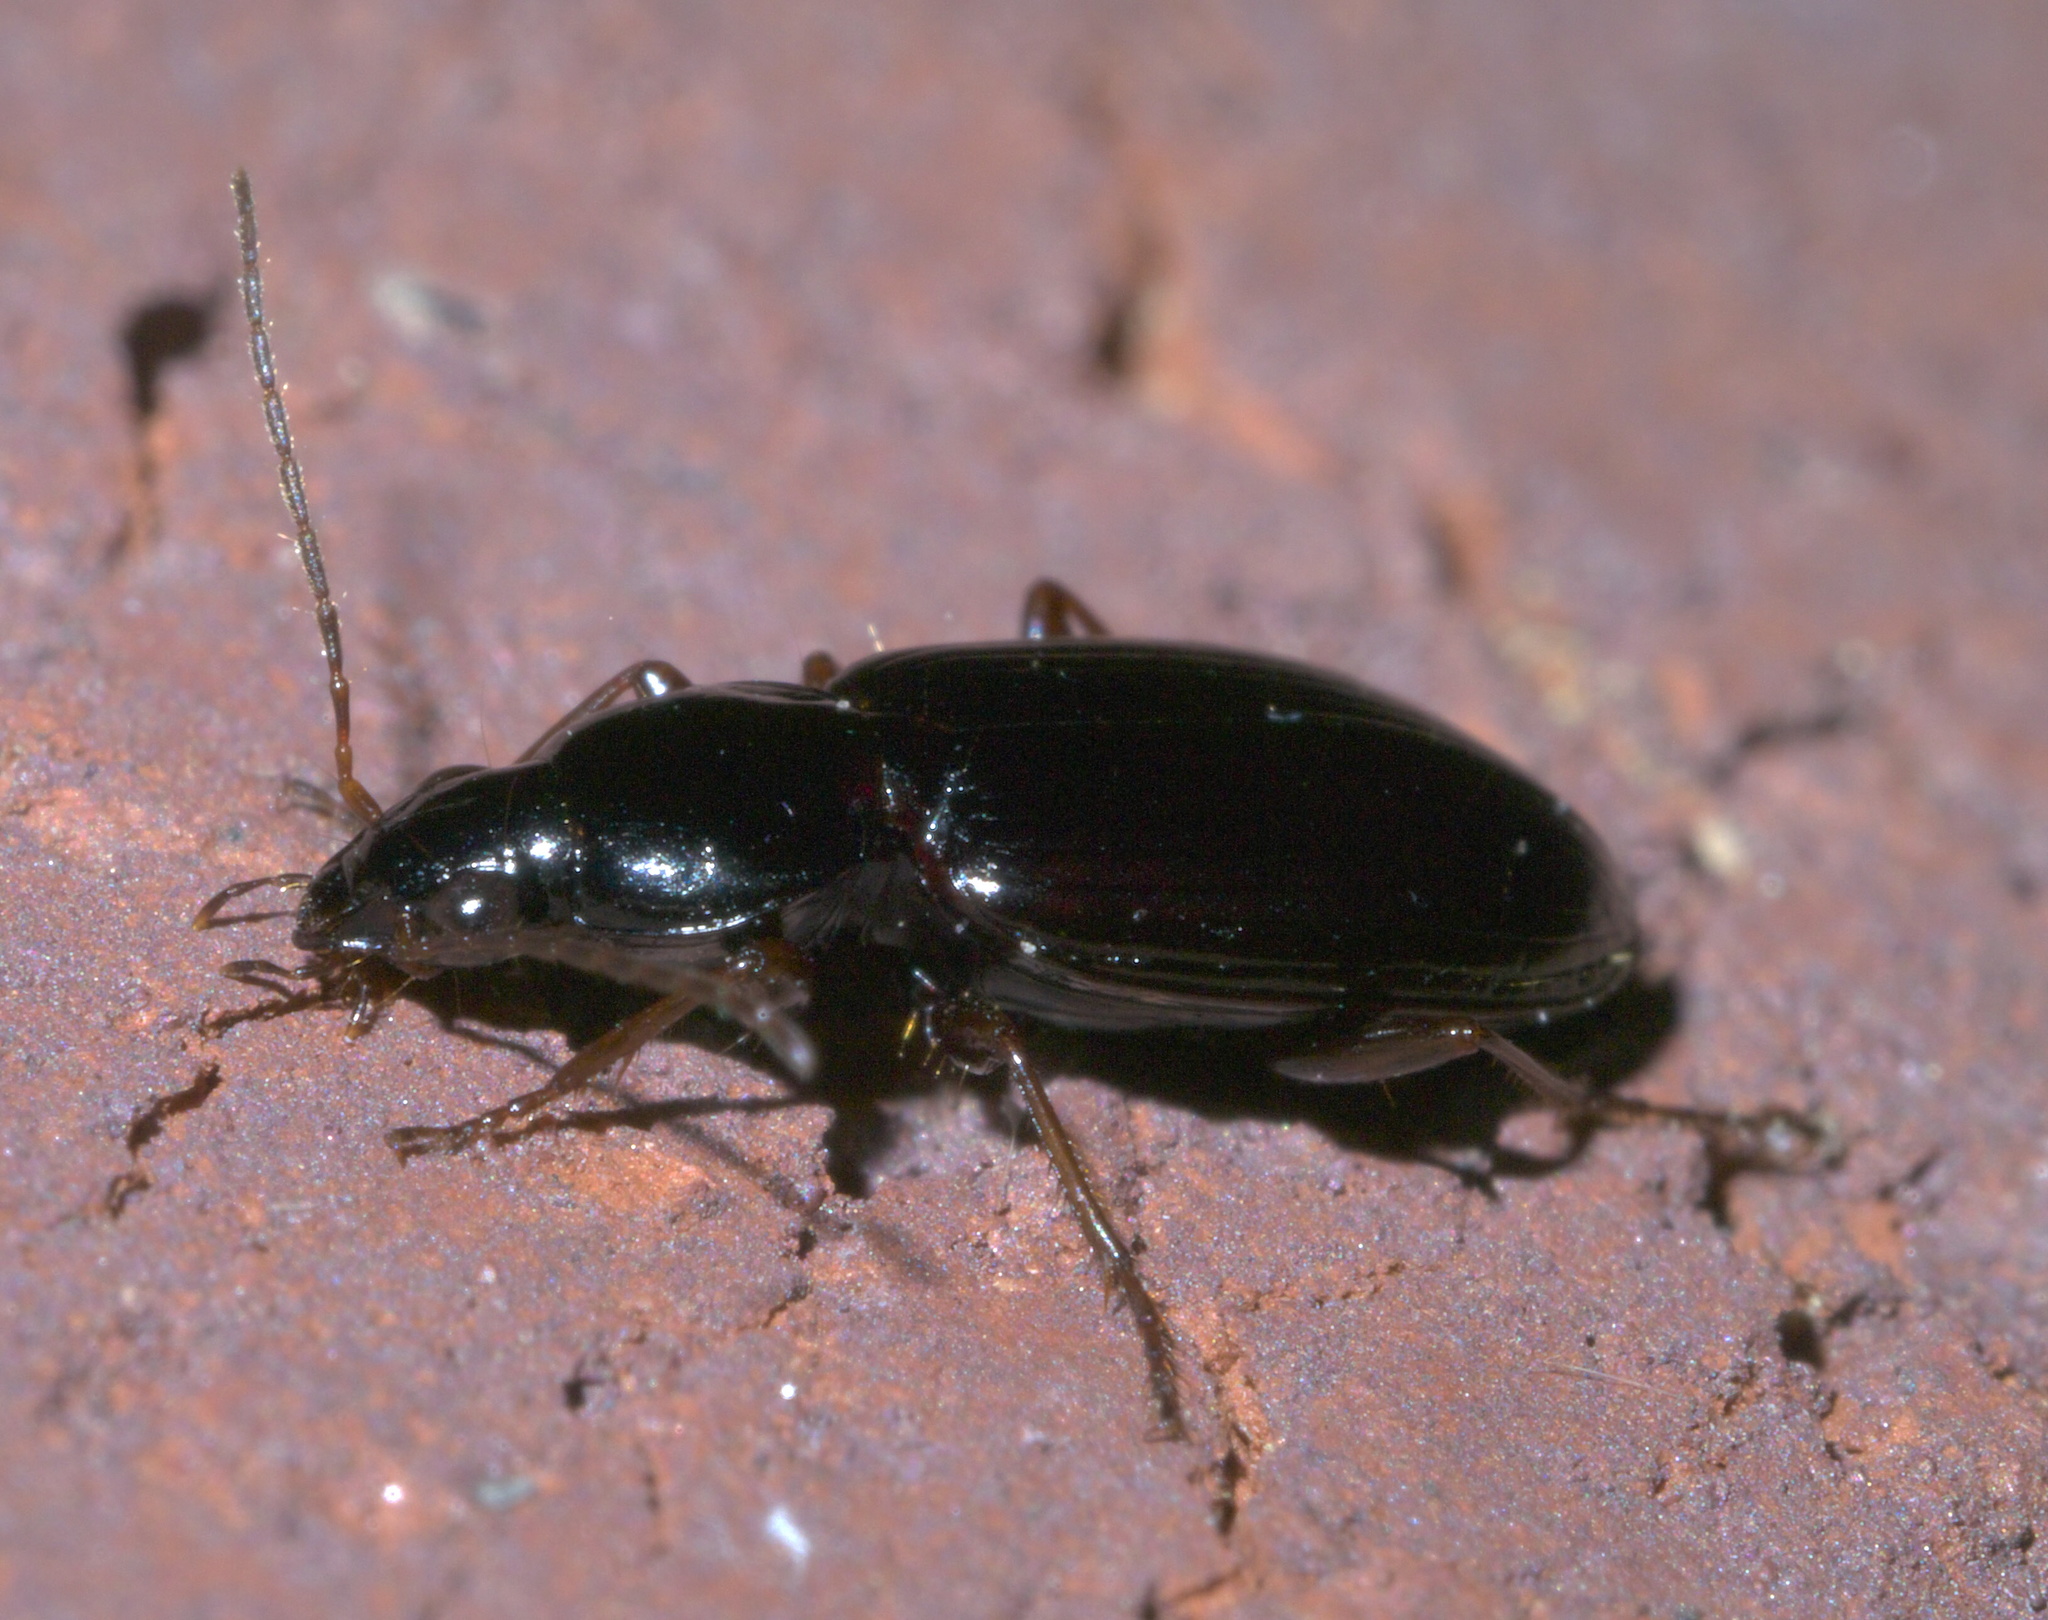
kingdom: Animalia
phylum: Arthropoda
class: Insecta
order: Coleoptera
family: Carabidae
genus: Agonum
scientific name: Agonum punctiforme
